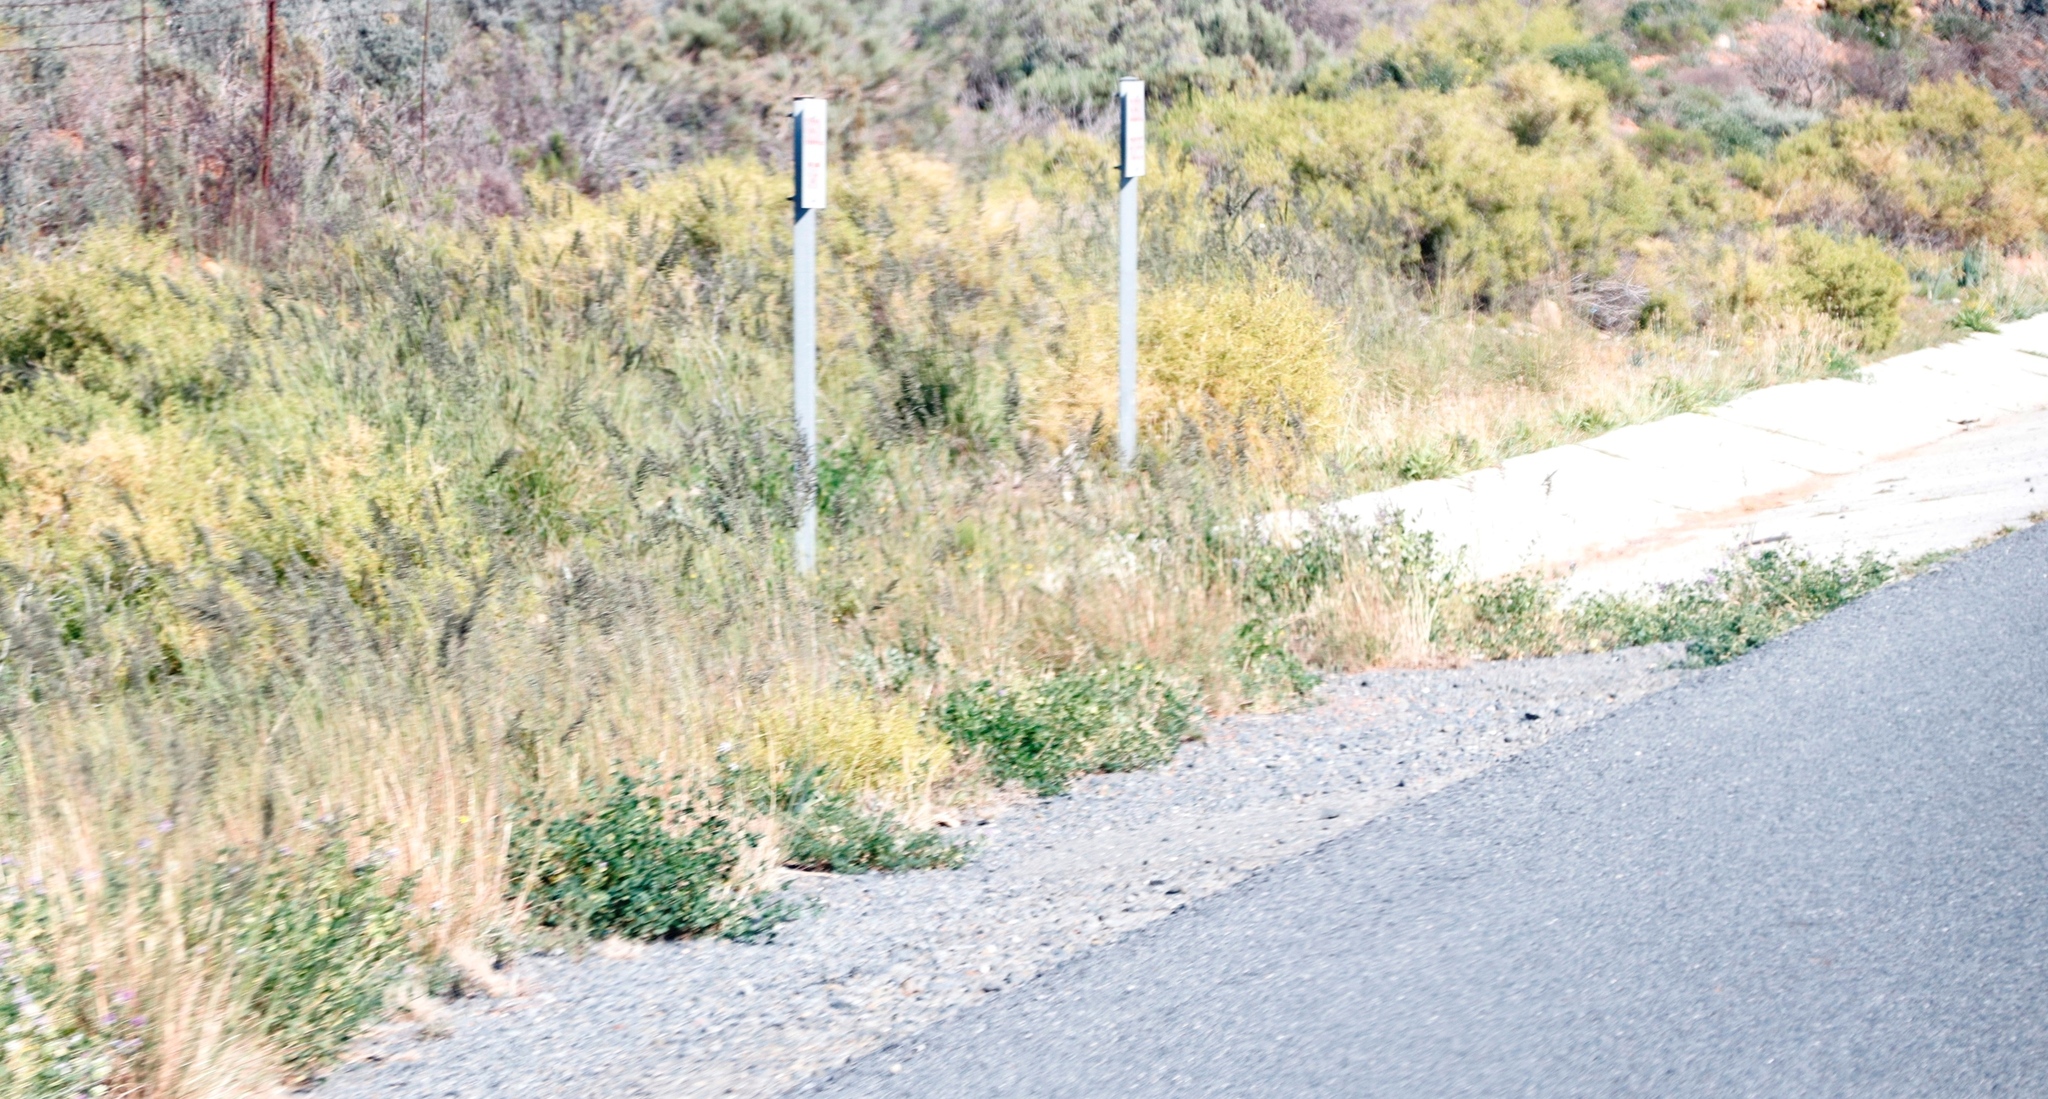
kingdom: Plantae
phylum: Tracheophyta
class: Magnoliopsida
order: Fabales
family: Fabaceae
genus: Medicago
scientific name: Medicago sativa
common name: Alfalfa
